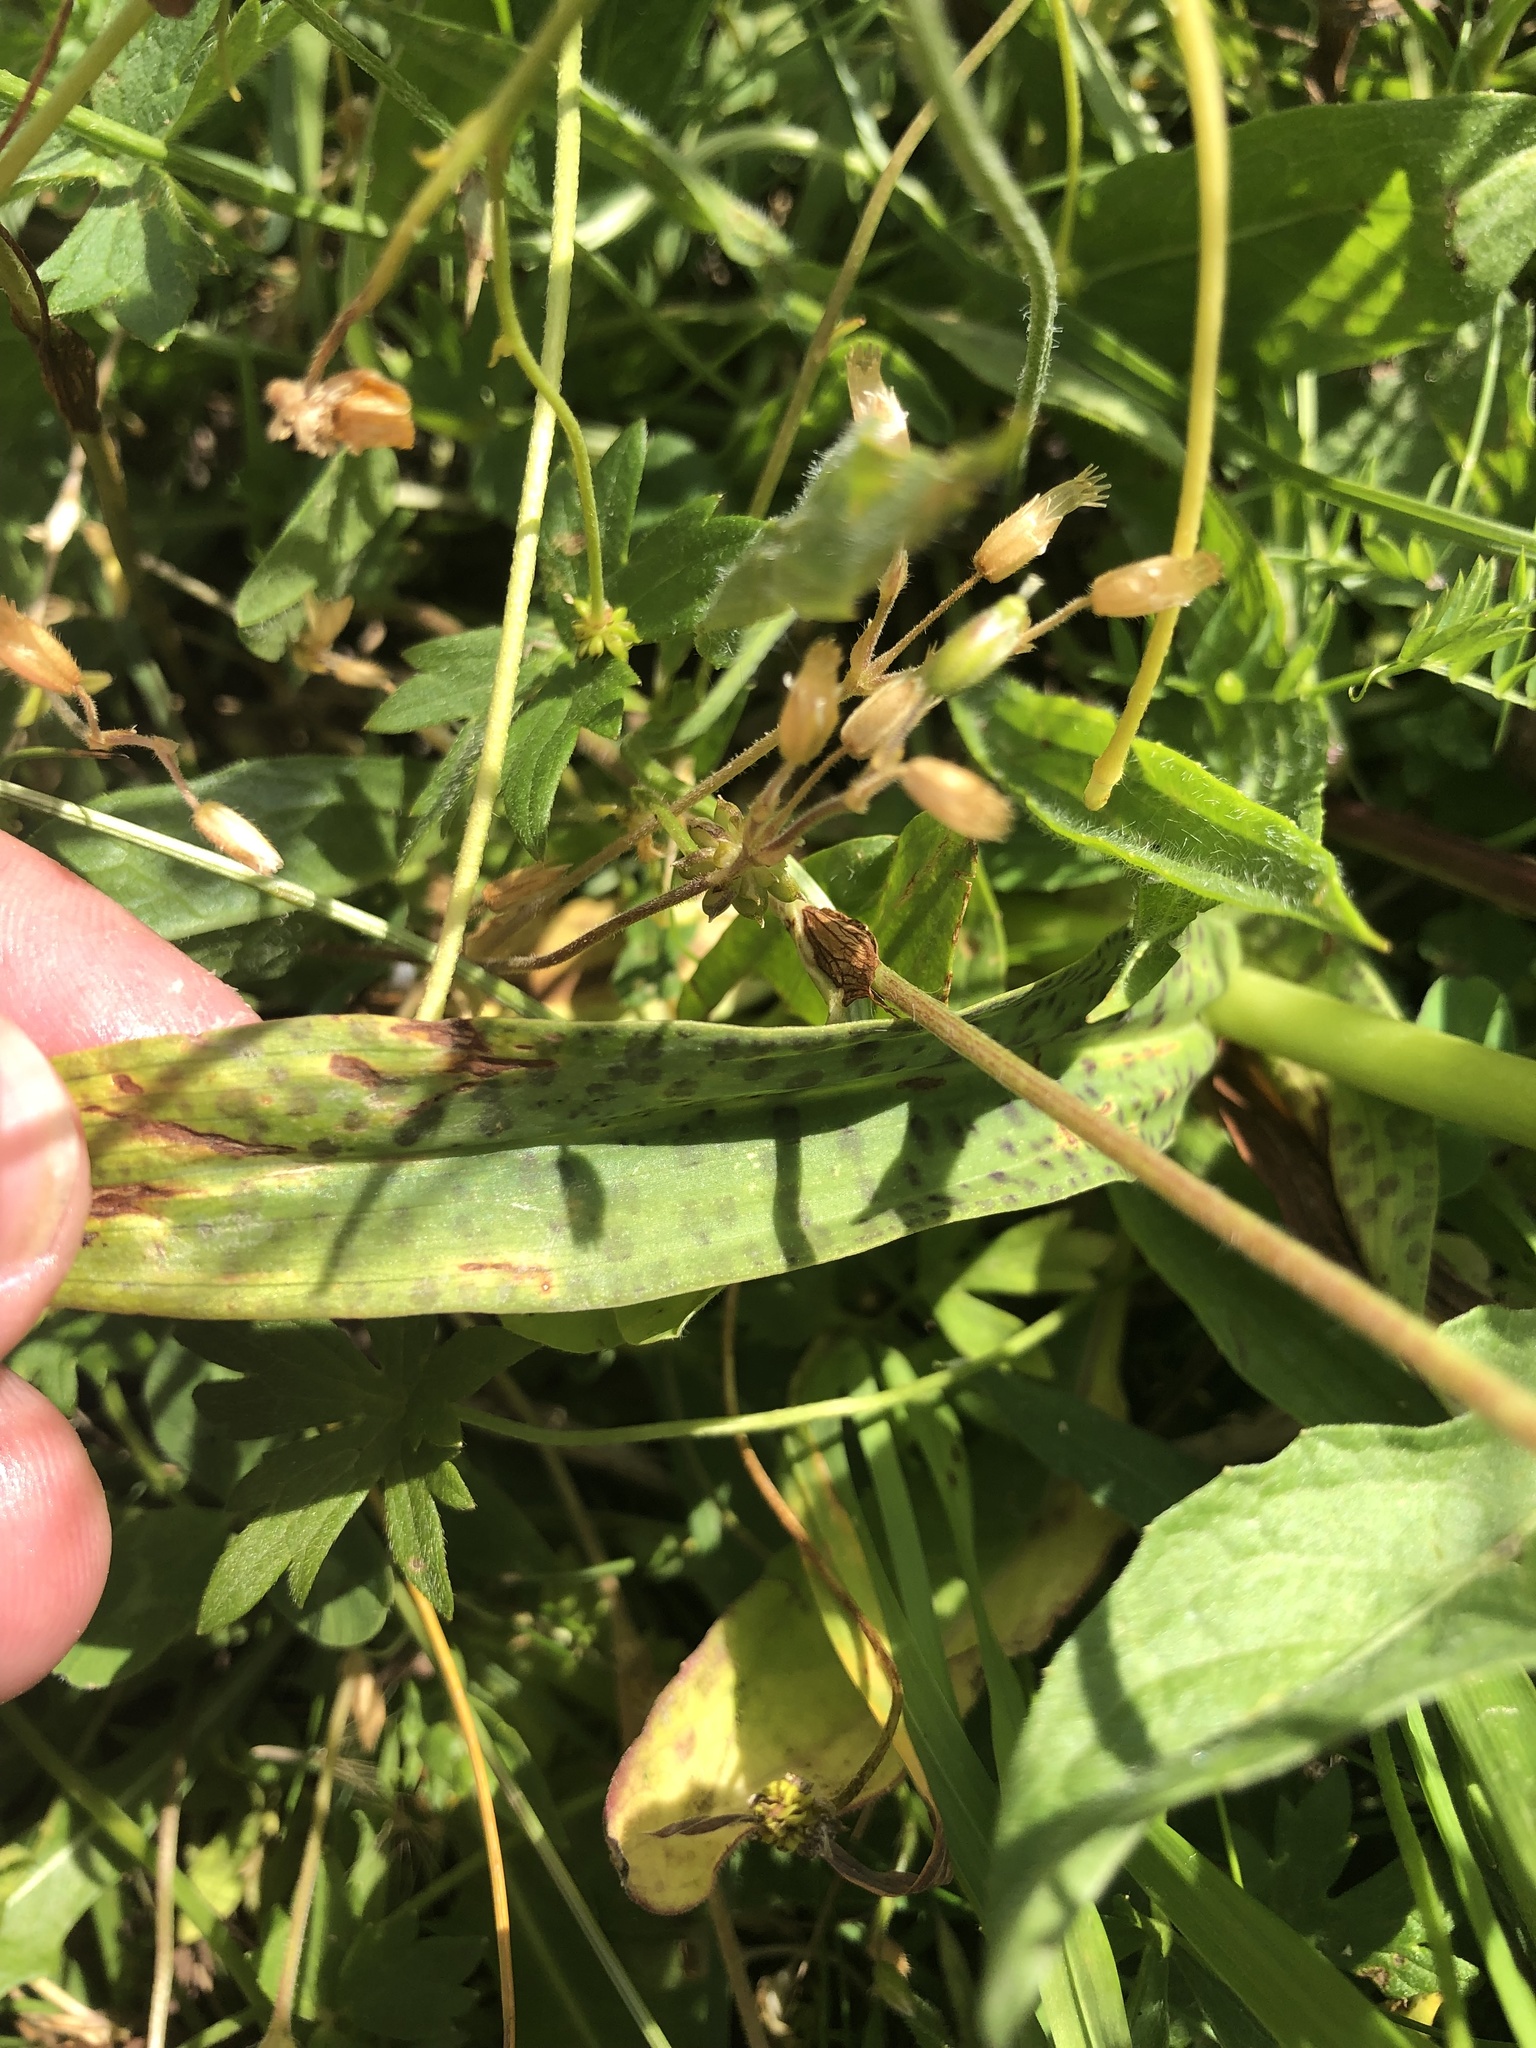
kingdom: Plantae
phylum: Tracheophyta
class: Liliopsida
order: Asparagales
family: Orchidaceae
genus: Dactylorhiza
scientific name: Dactylorhiza majalis
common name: Marsh orchid
